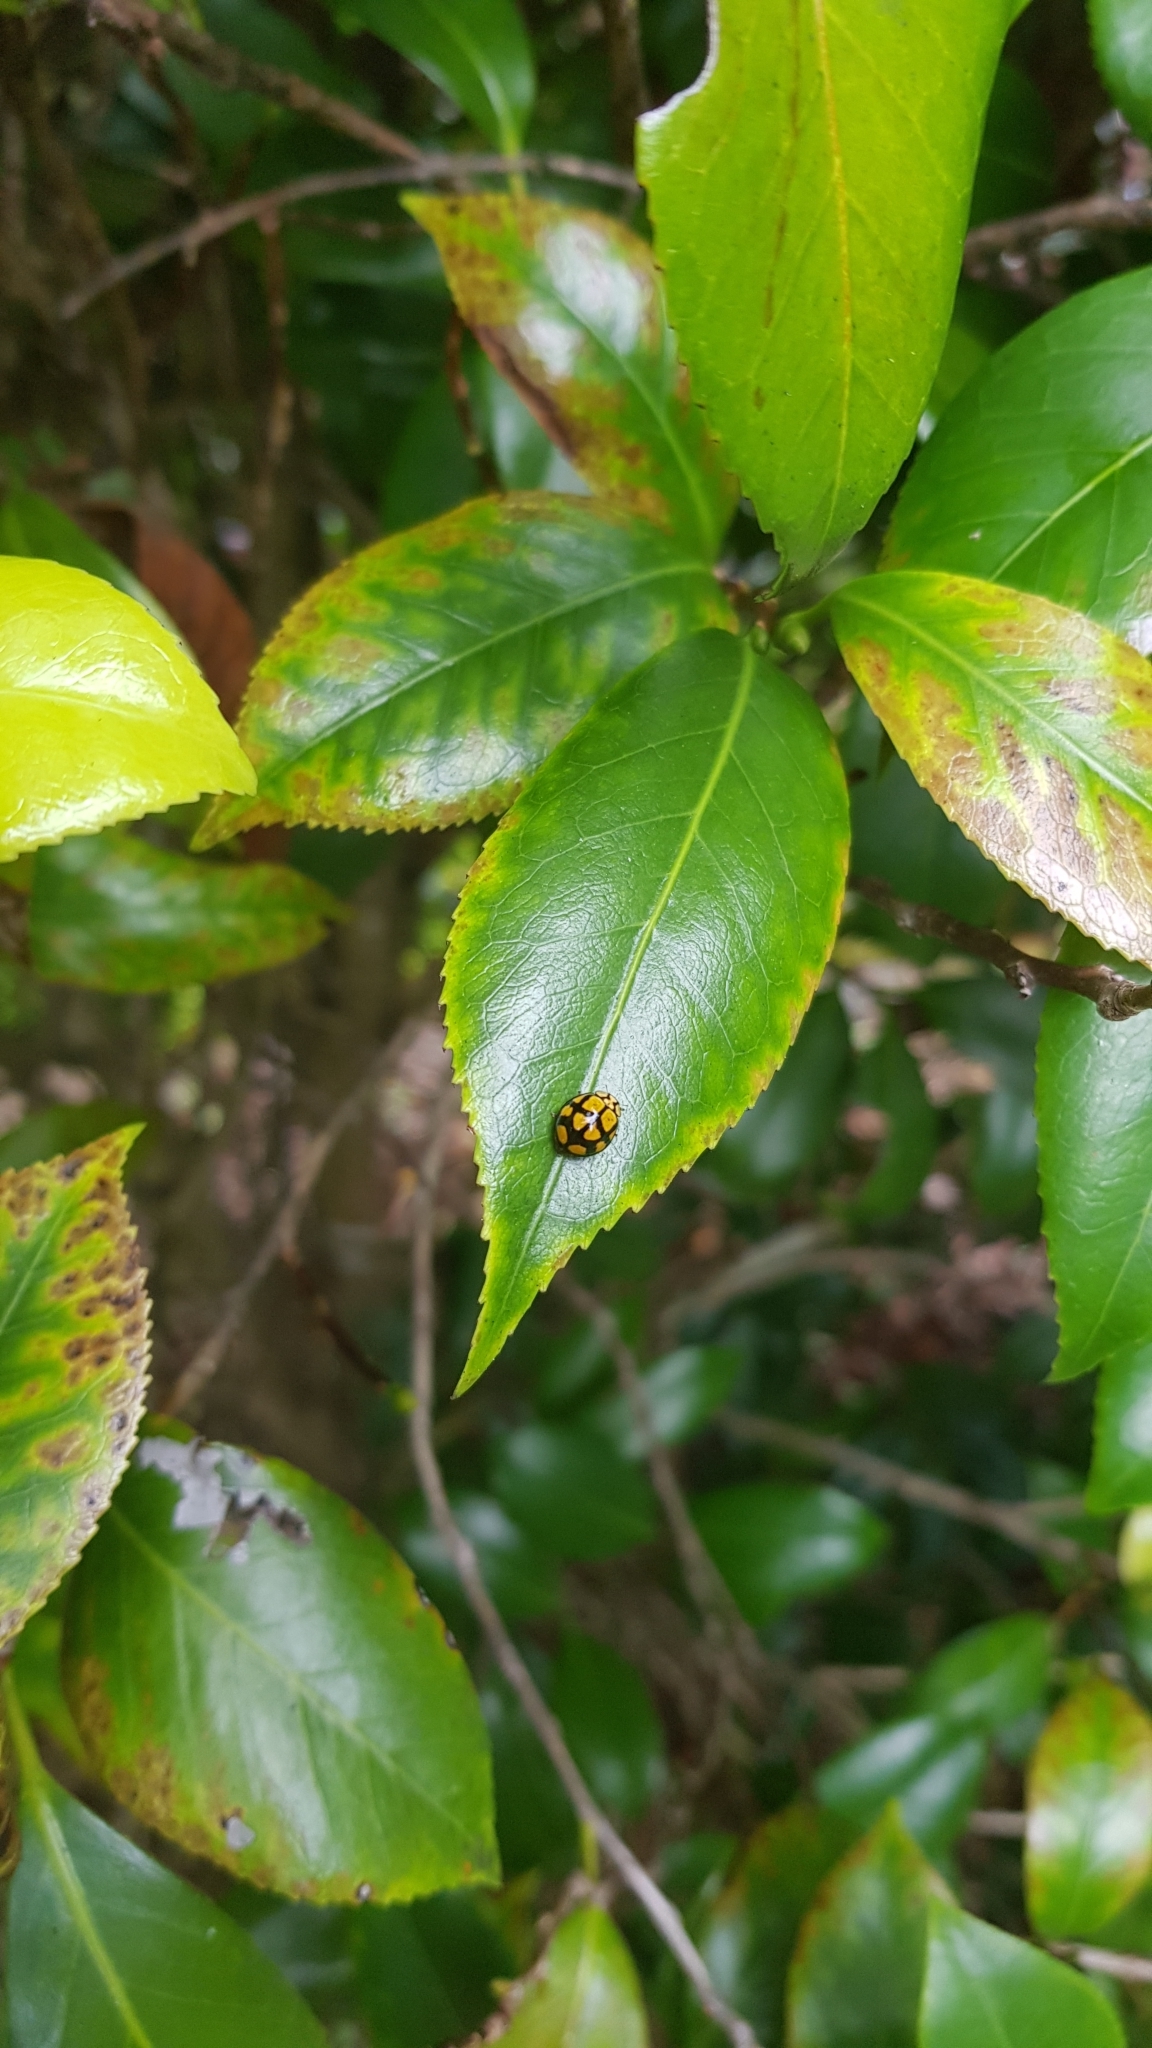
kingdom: Animalia
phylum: Arthropoda
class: Insecta
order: Coleoptera
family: Coccinellidae
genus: Harmonia
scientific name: Harmonia
